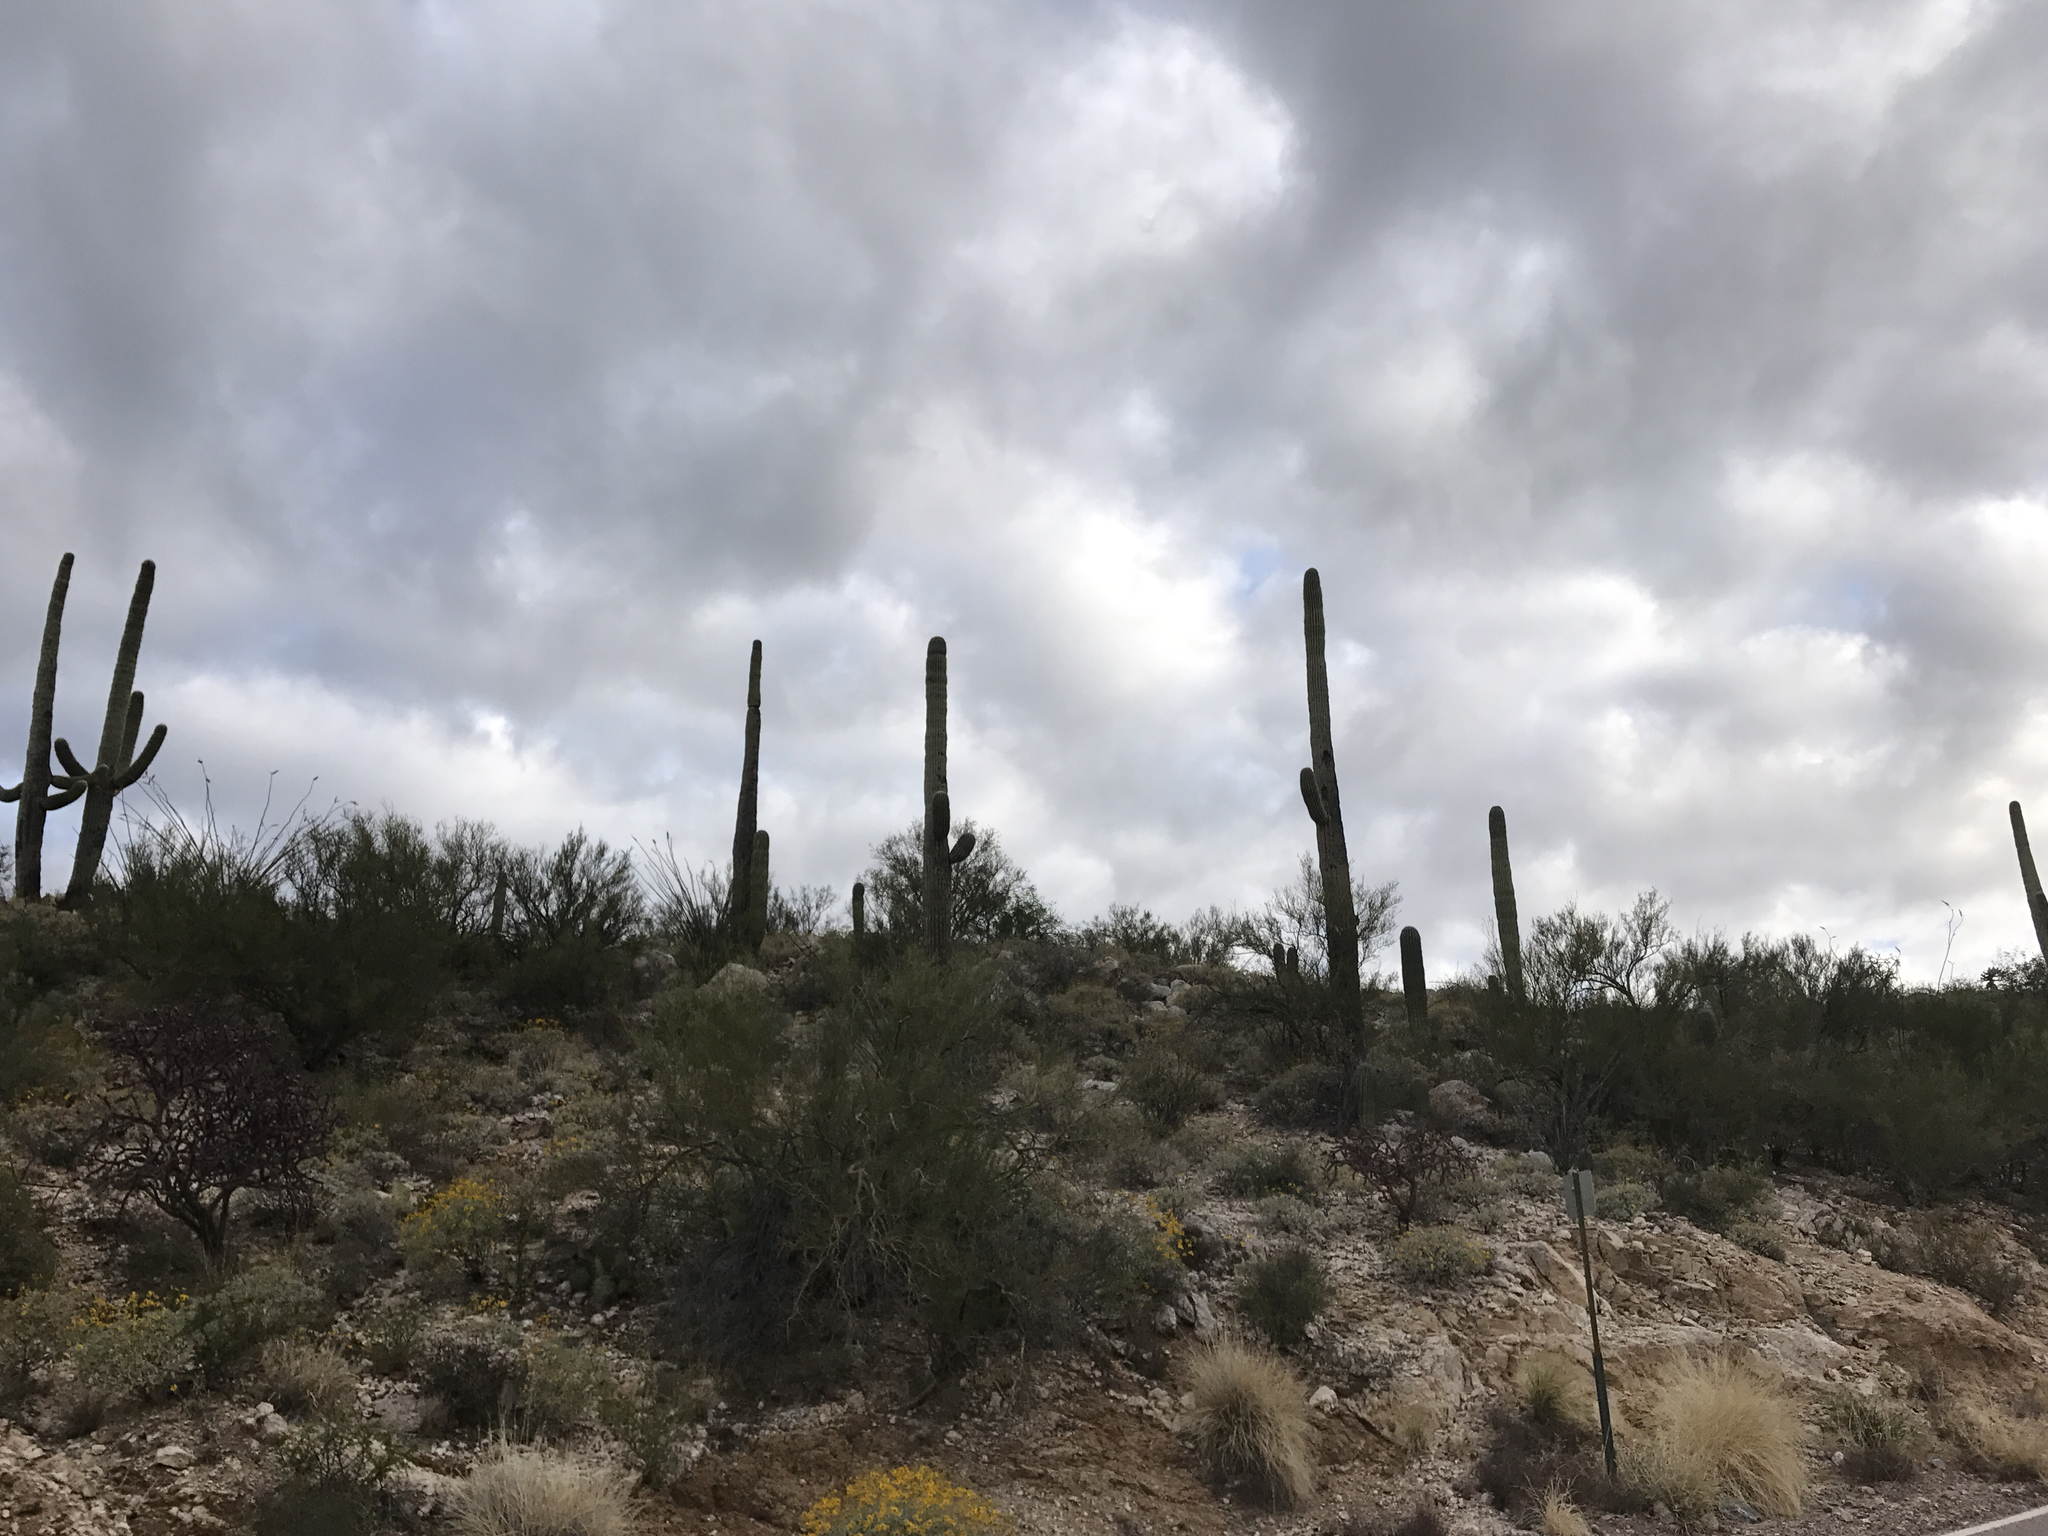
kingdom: Plantae
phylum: Tracheophyta
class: Magnoliopsida
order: Caryophyllales
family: Cactaceae
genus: Carnegiea
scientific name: Carnegiea gigantea
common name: Saguaro
